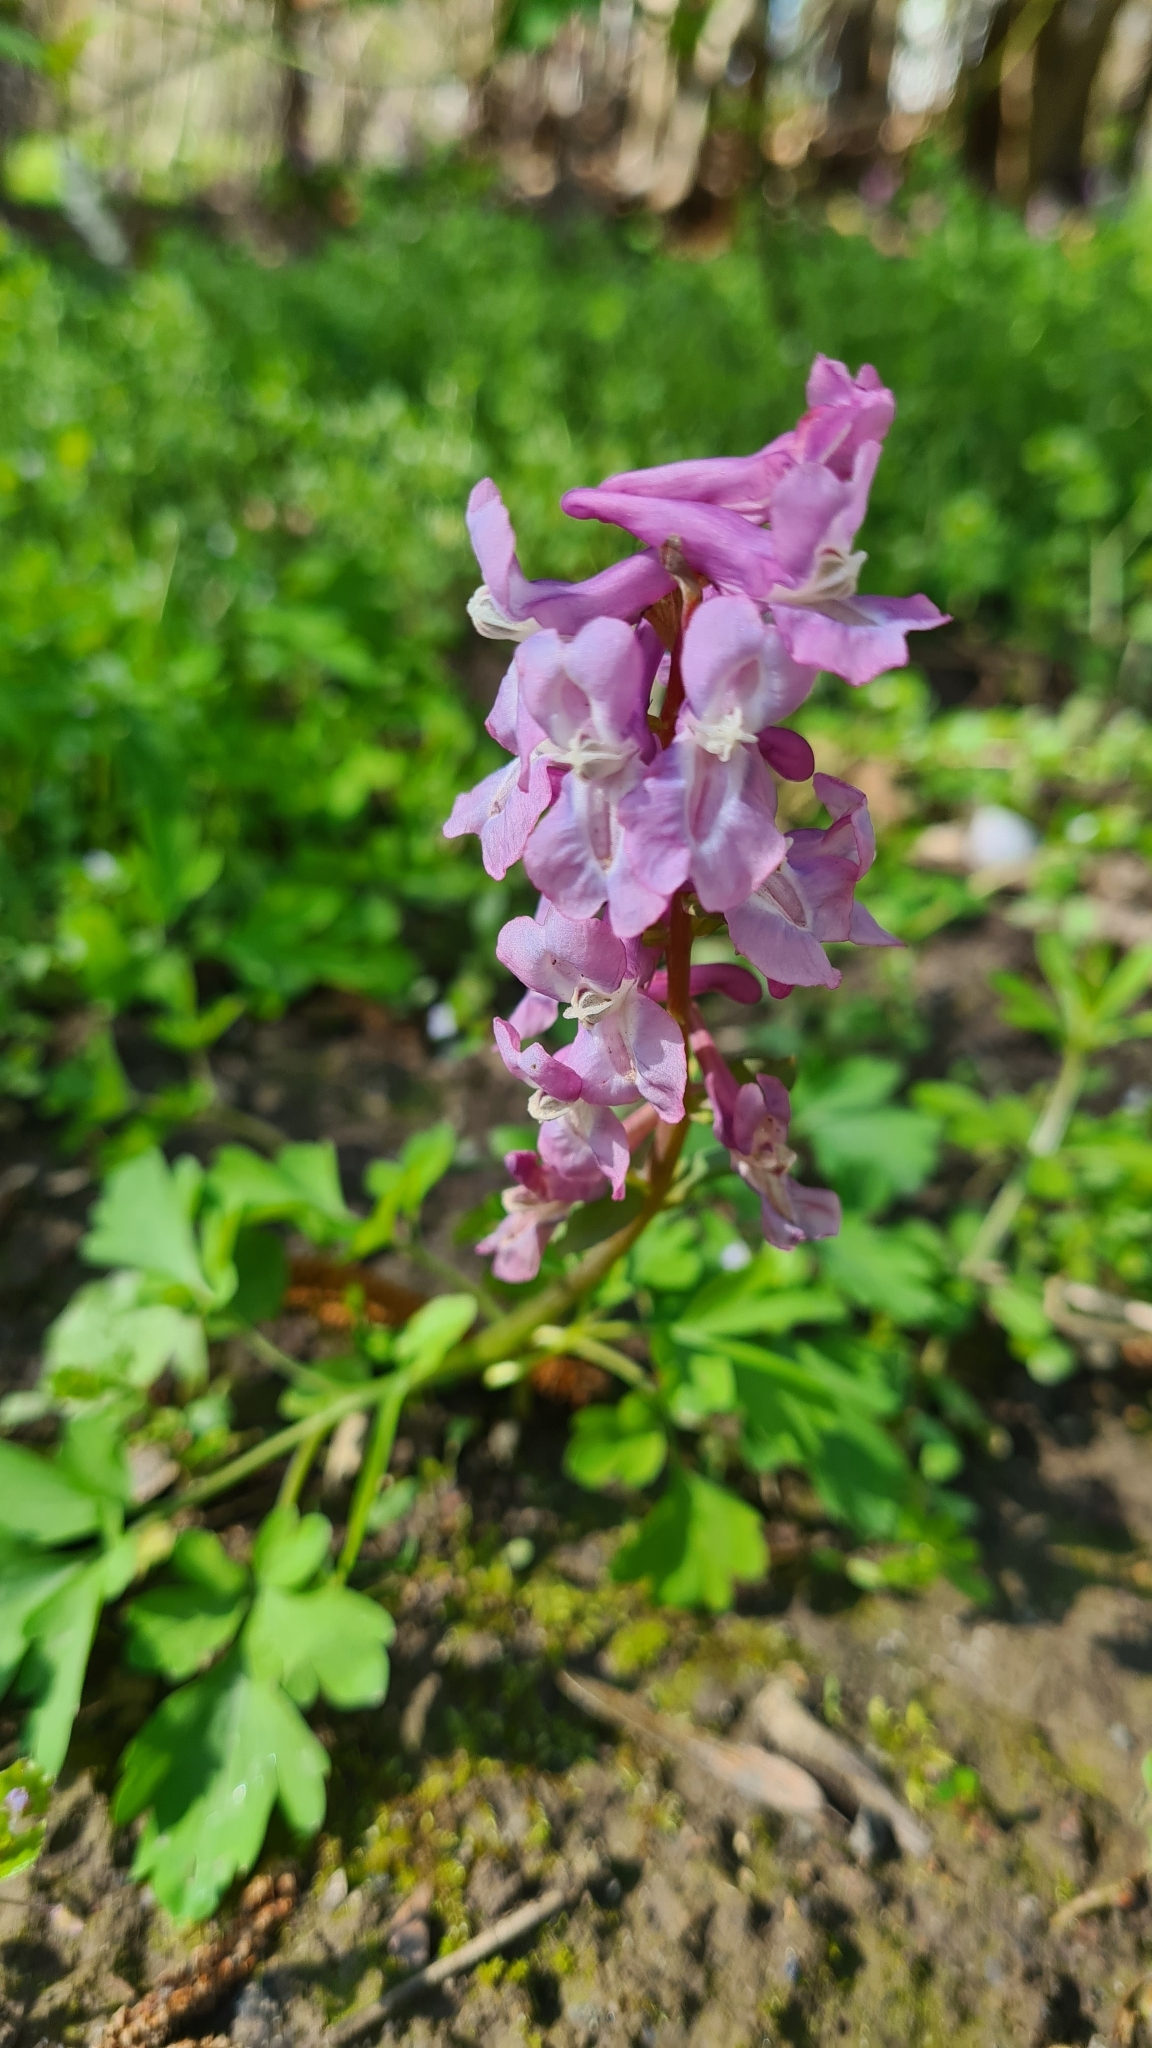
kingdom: Plantae
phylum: Tracheophyta
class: Magnoliopsida
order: Ranunculales
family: Papaveraceae
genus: Corydalis
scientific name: Corydalis cava
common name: Hollowroot
